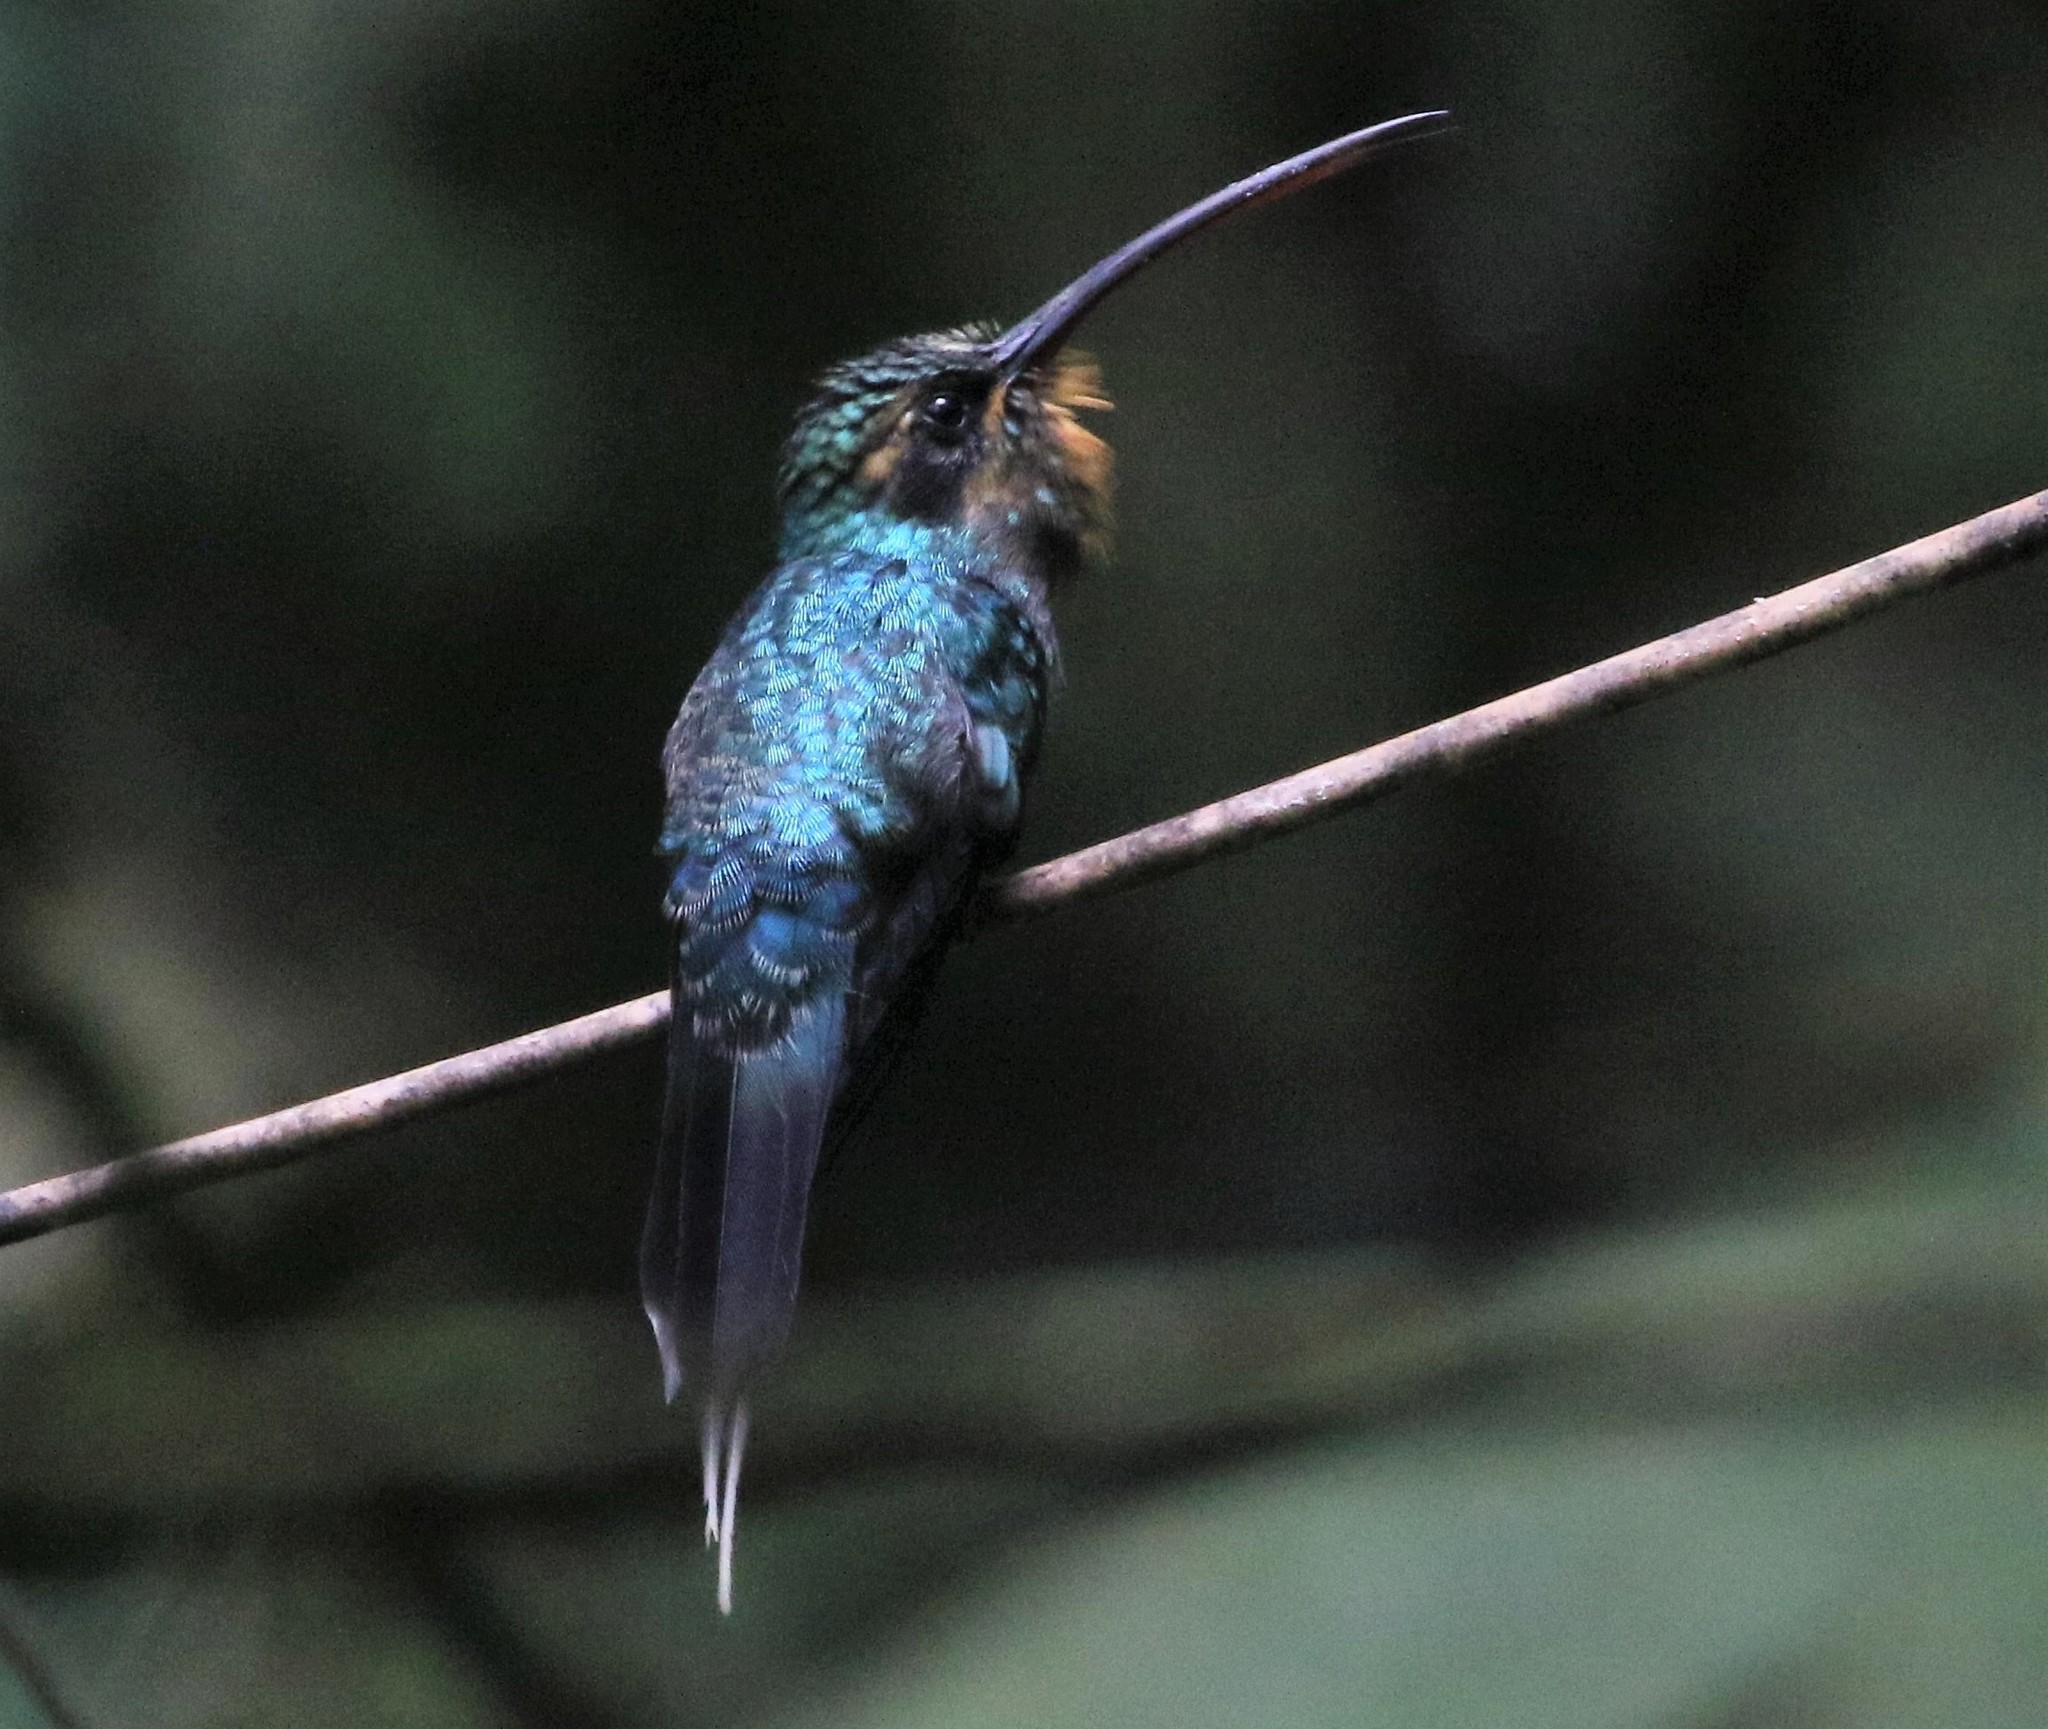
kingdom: Animalia
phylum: Chordata
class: Aves
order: Apodiformes
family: Trochilidae
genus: Phaethornis
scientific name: Phaethornis guy
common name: Green hermit
